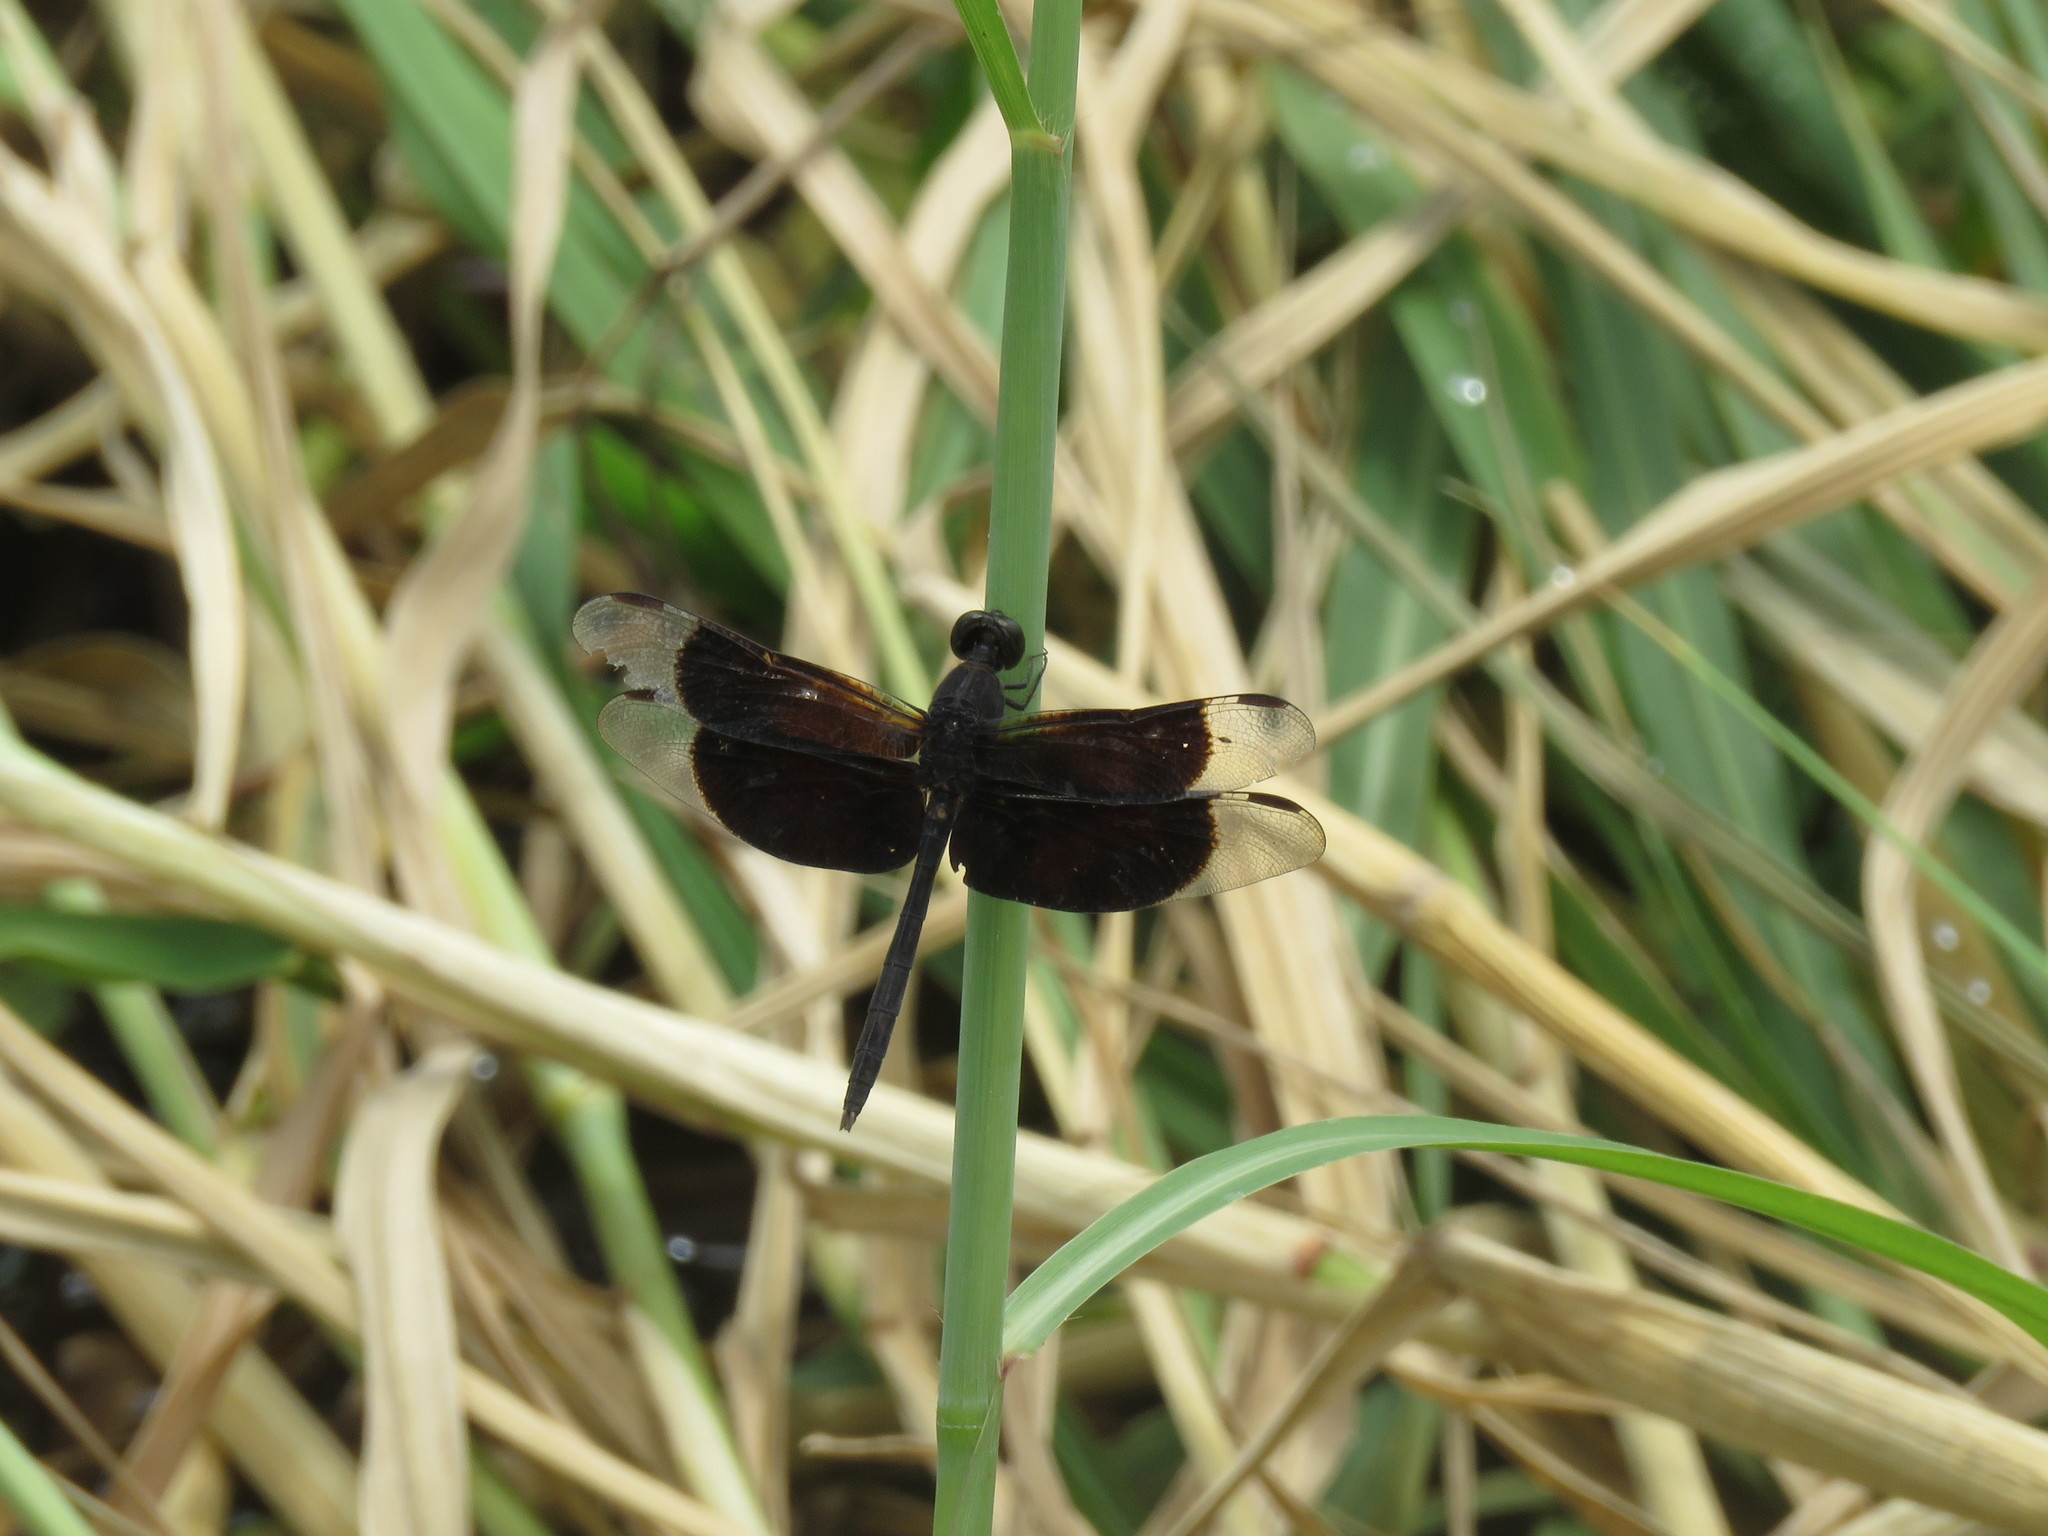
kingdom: Animalia
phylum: Arthropoda
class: Insecta
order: Odonata
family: Libellulidae
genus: Erythrodiplax
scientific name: Erythrodiplax funerea
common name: Black-winged dragonlet
